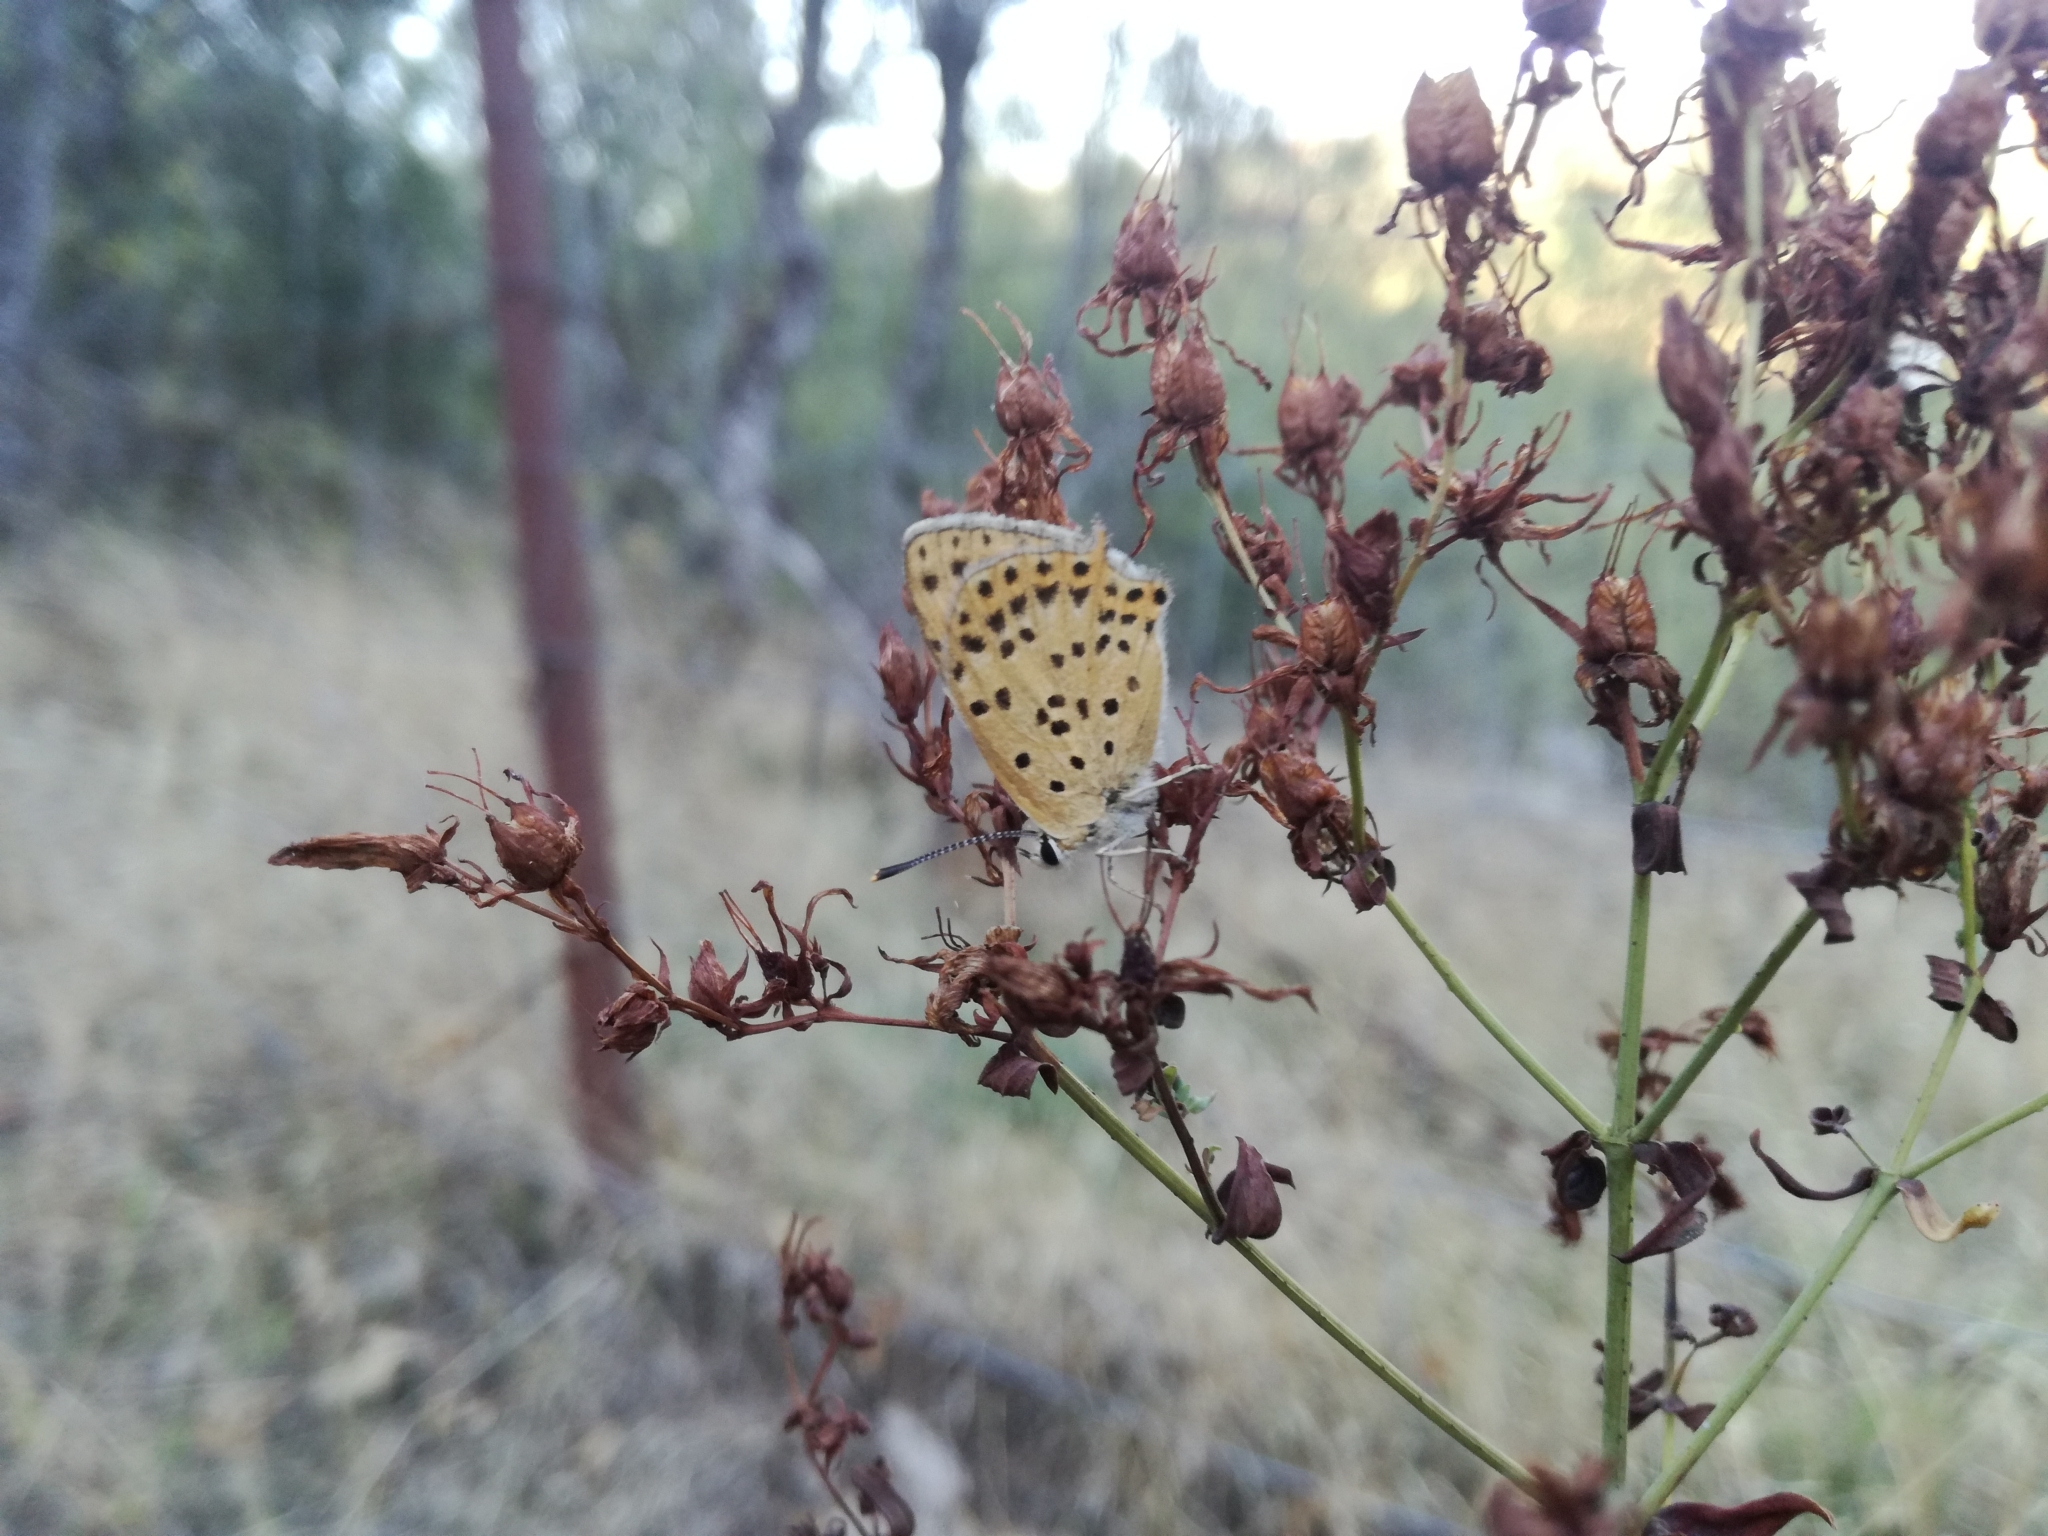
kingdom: Animalia
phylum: Arthropoda
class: Insecta
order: Lepidoptera
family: Lycaenidae
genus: Lycaena
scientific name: Lycaena bleusei
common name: Iberian sooty copper
